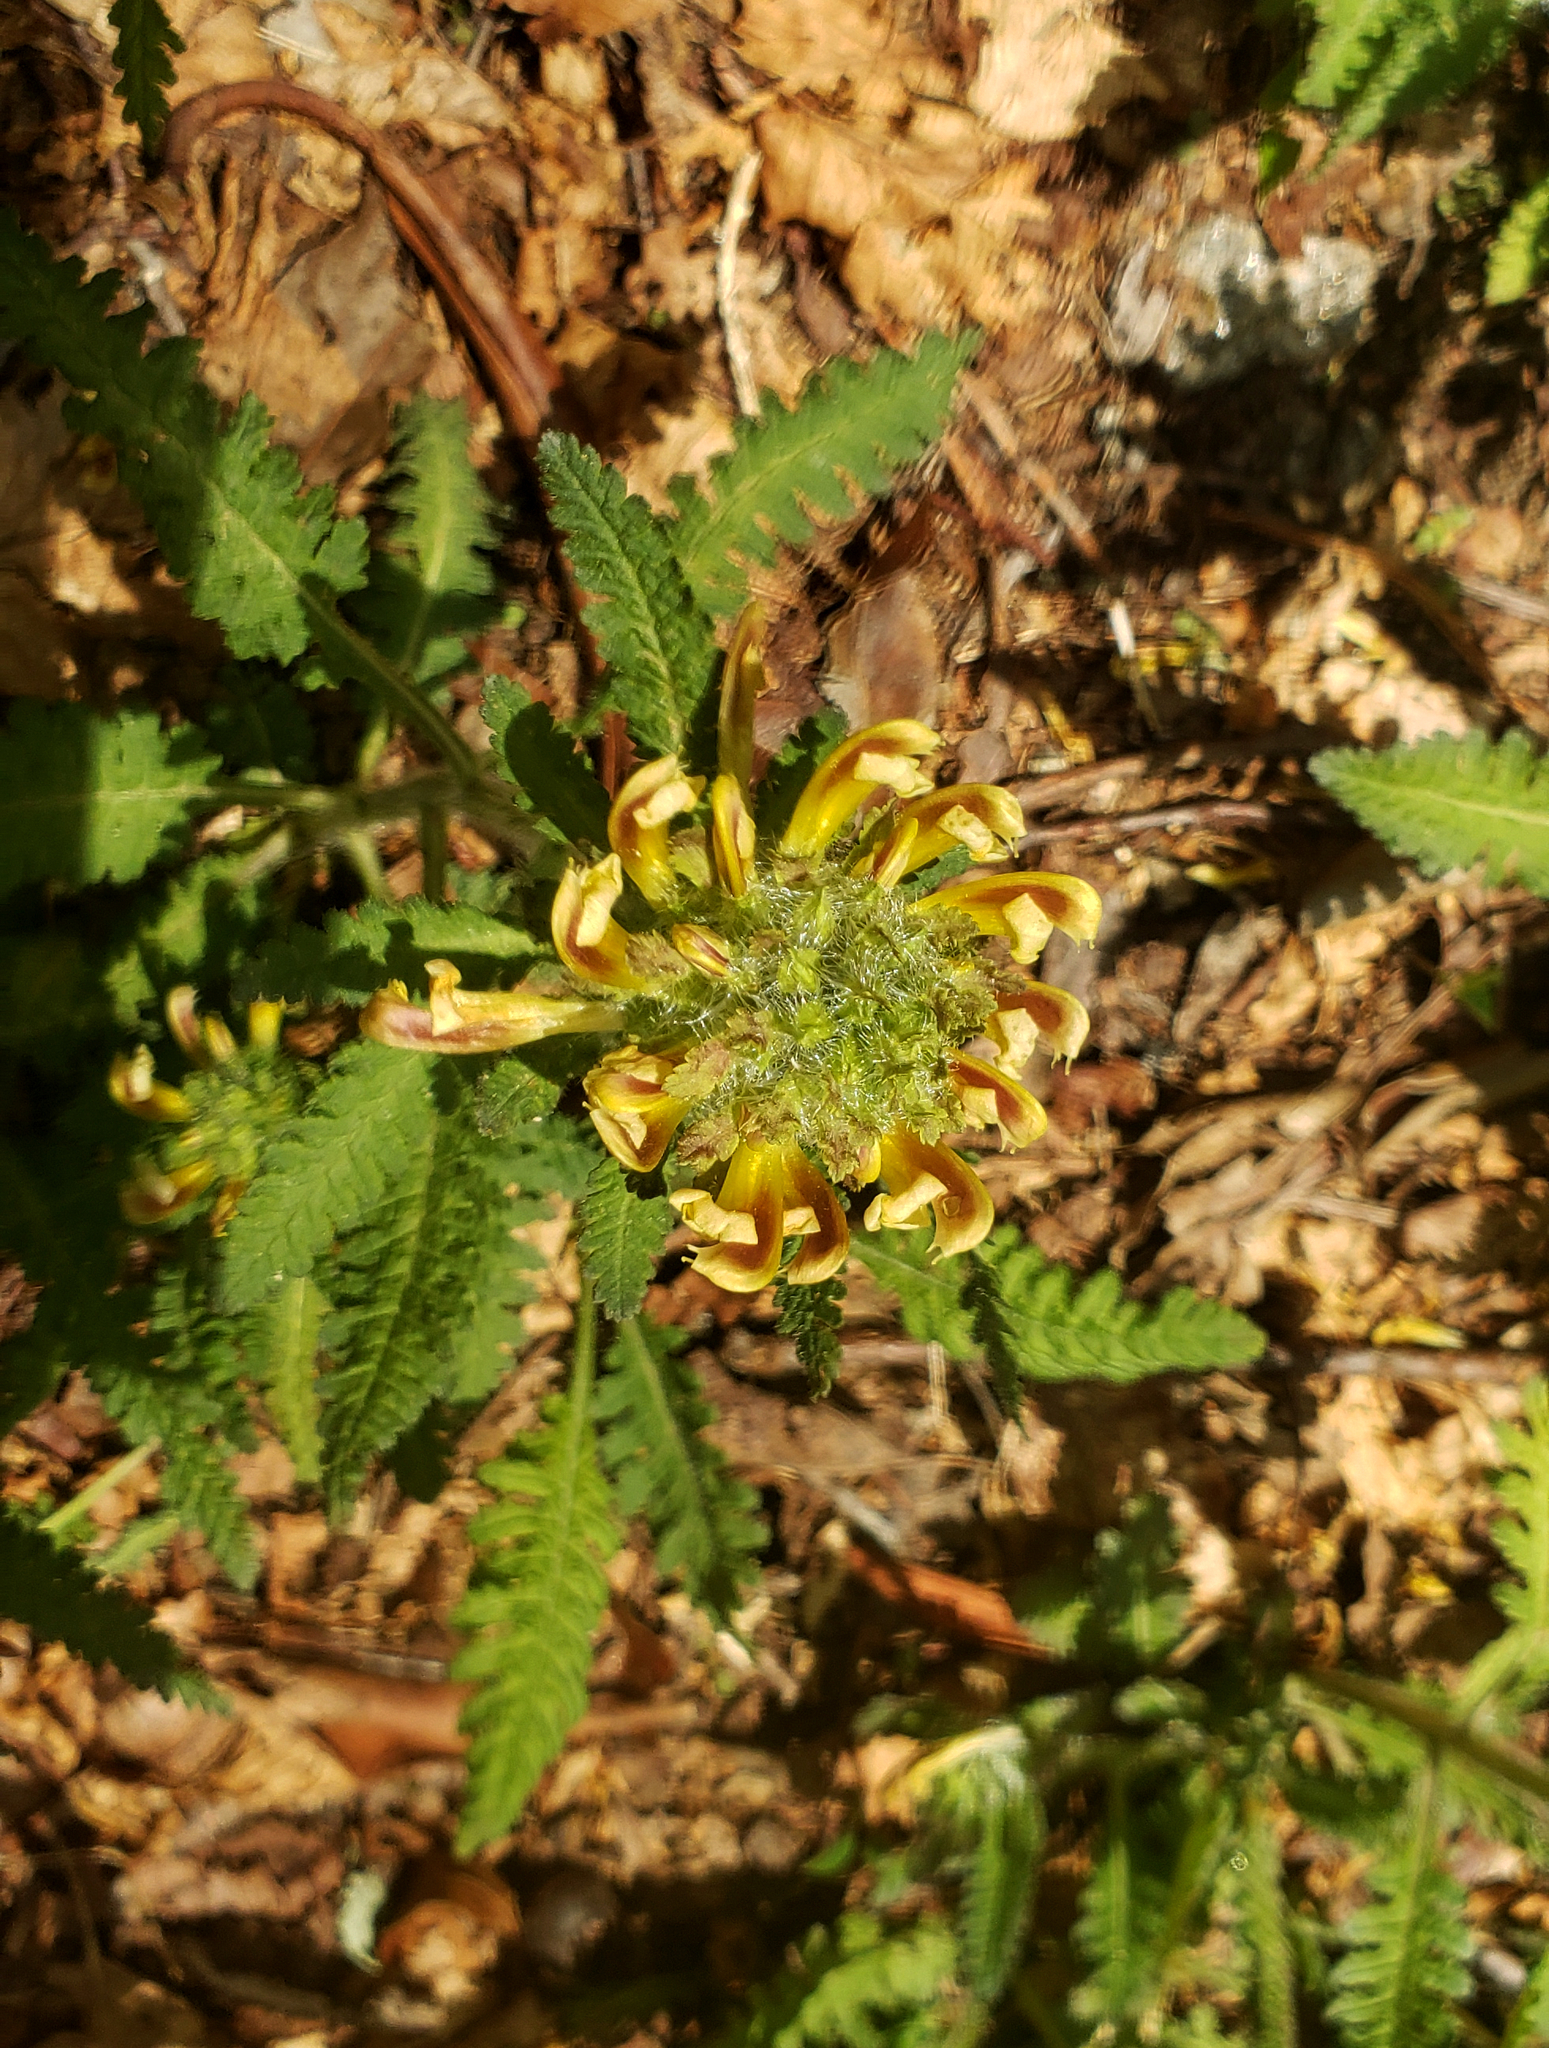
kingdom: Plantae
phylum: Tracheophyta
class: Magnoliopsida
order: Lamiales
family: Orobanchaceae
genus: Pedicularis
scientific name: Pedicularis canadensis
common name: Early lousewort
